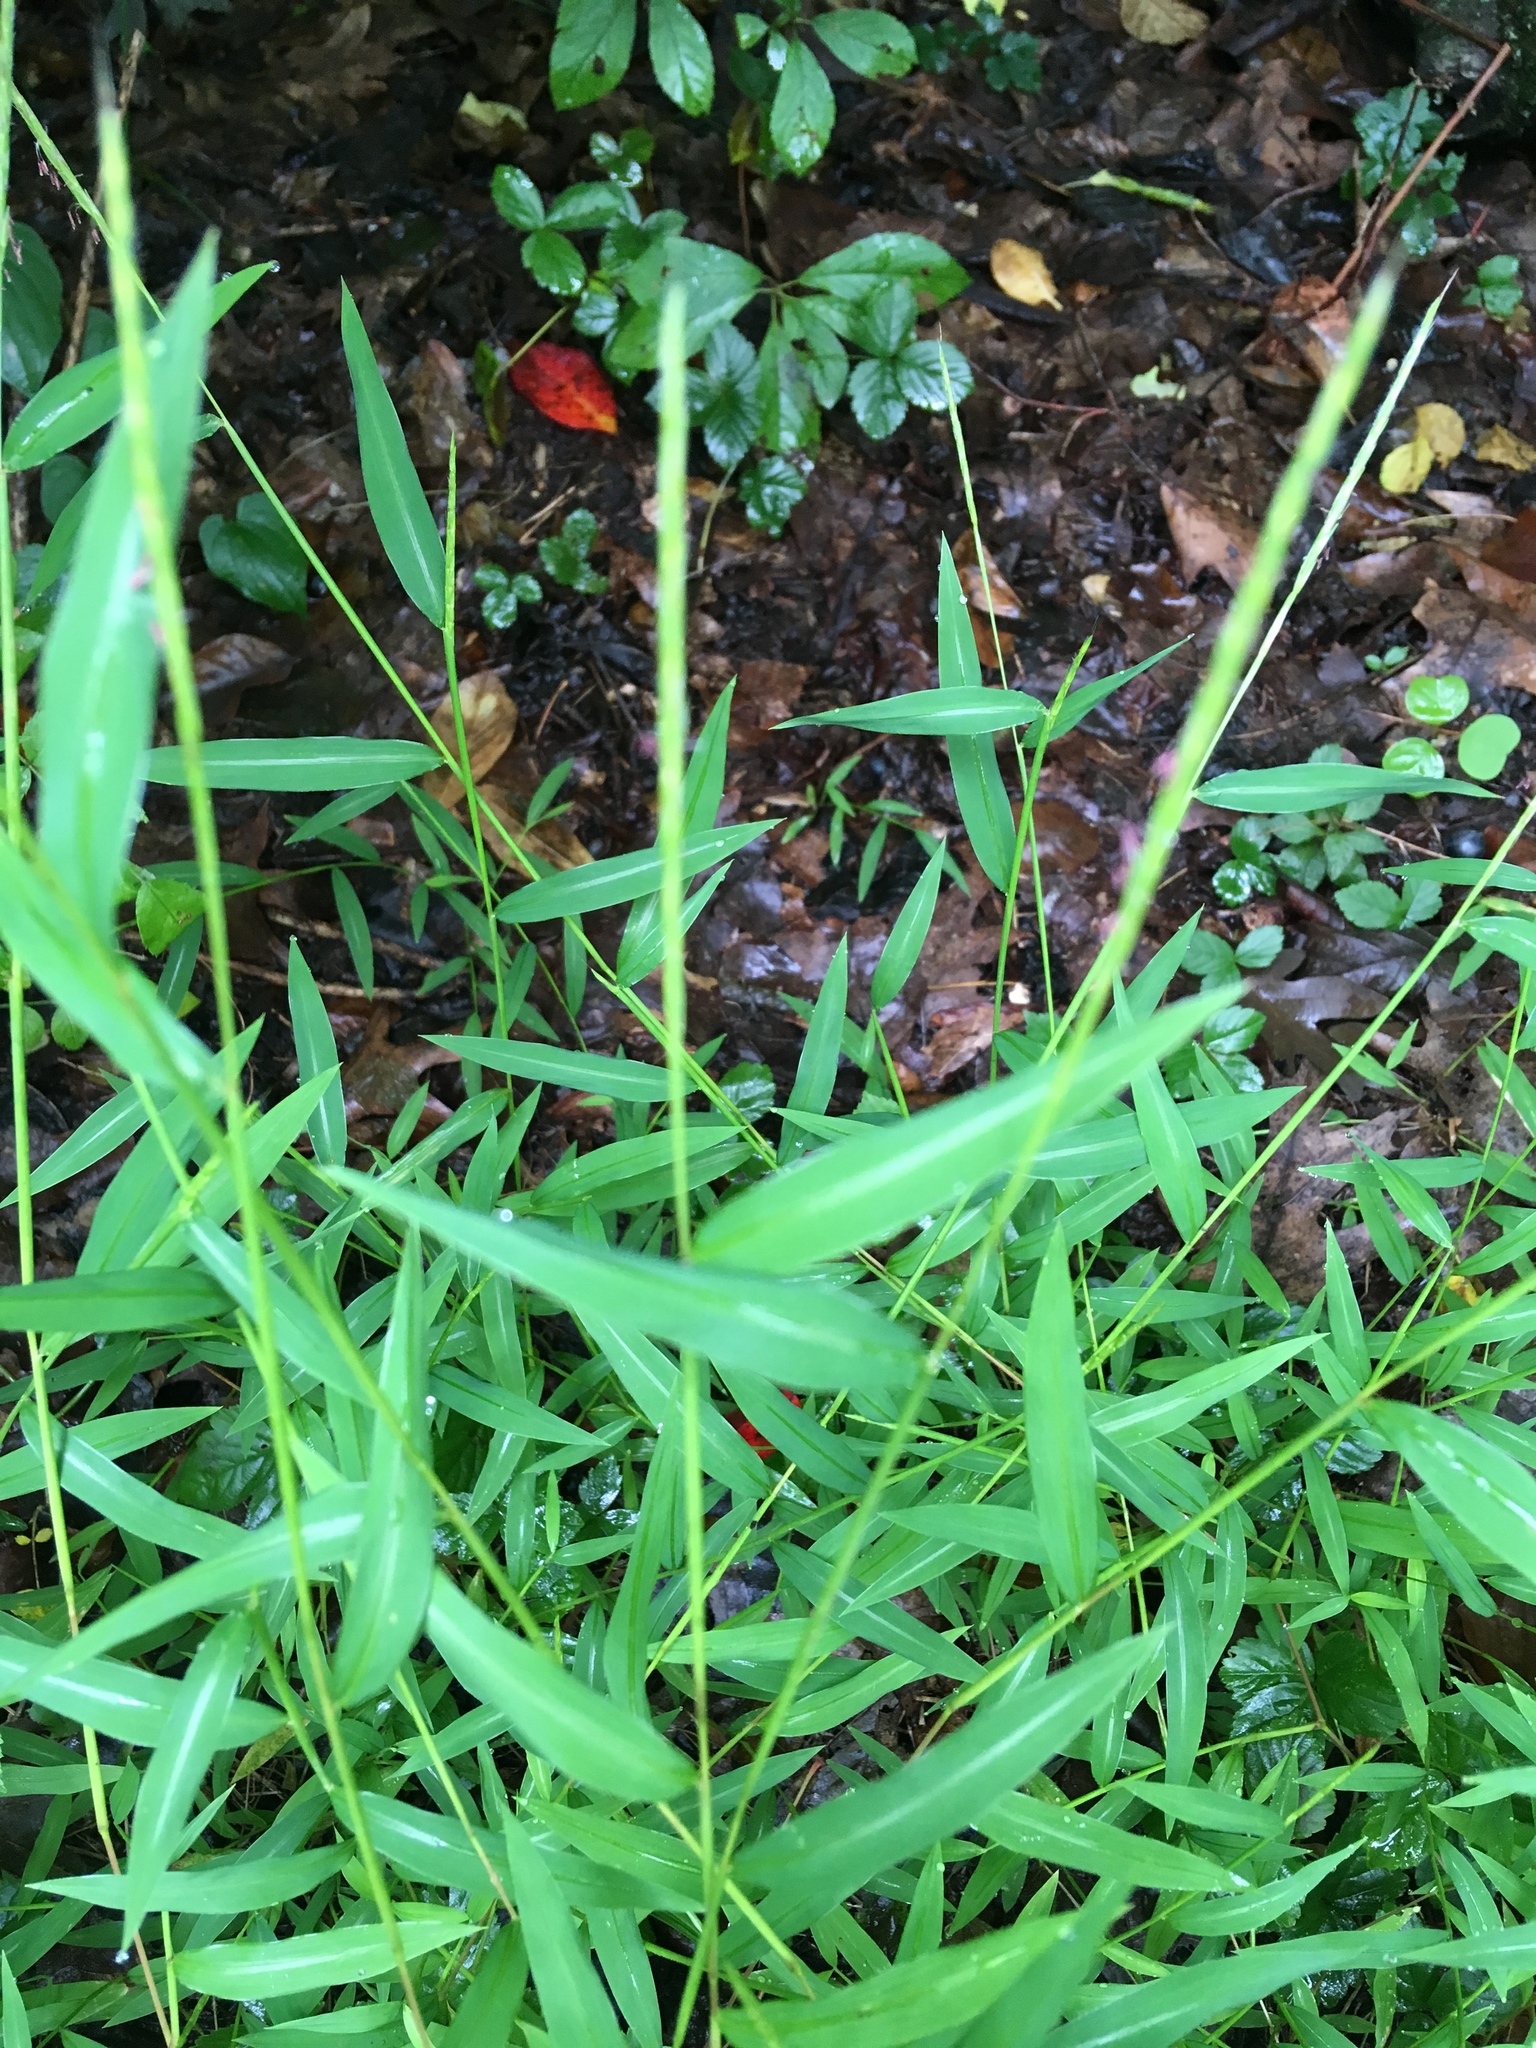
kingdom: Plantae
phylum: Tracheophyta
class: Liliopsida
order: Poales
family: Poaceae
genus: Microstegium
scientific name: Microstegium vimineum
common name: Japanese stiltgrass
